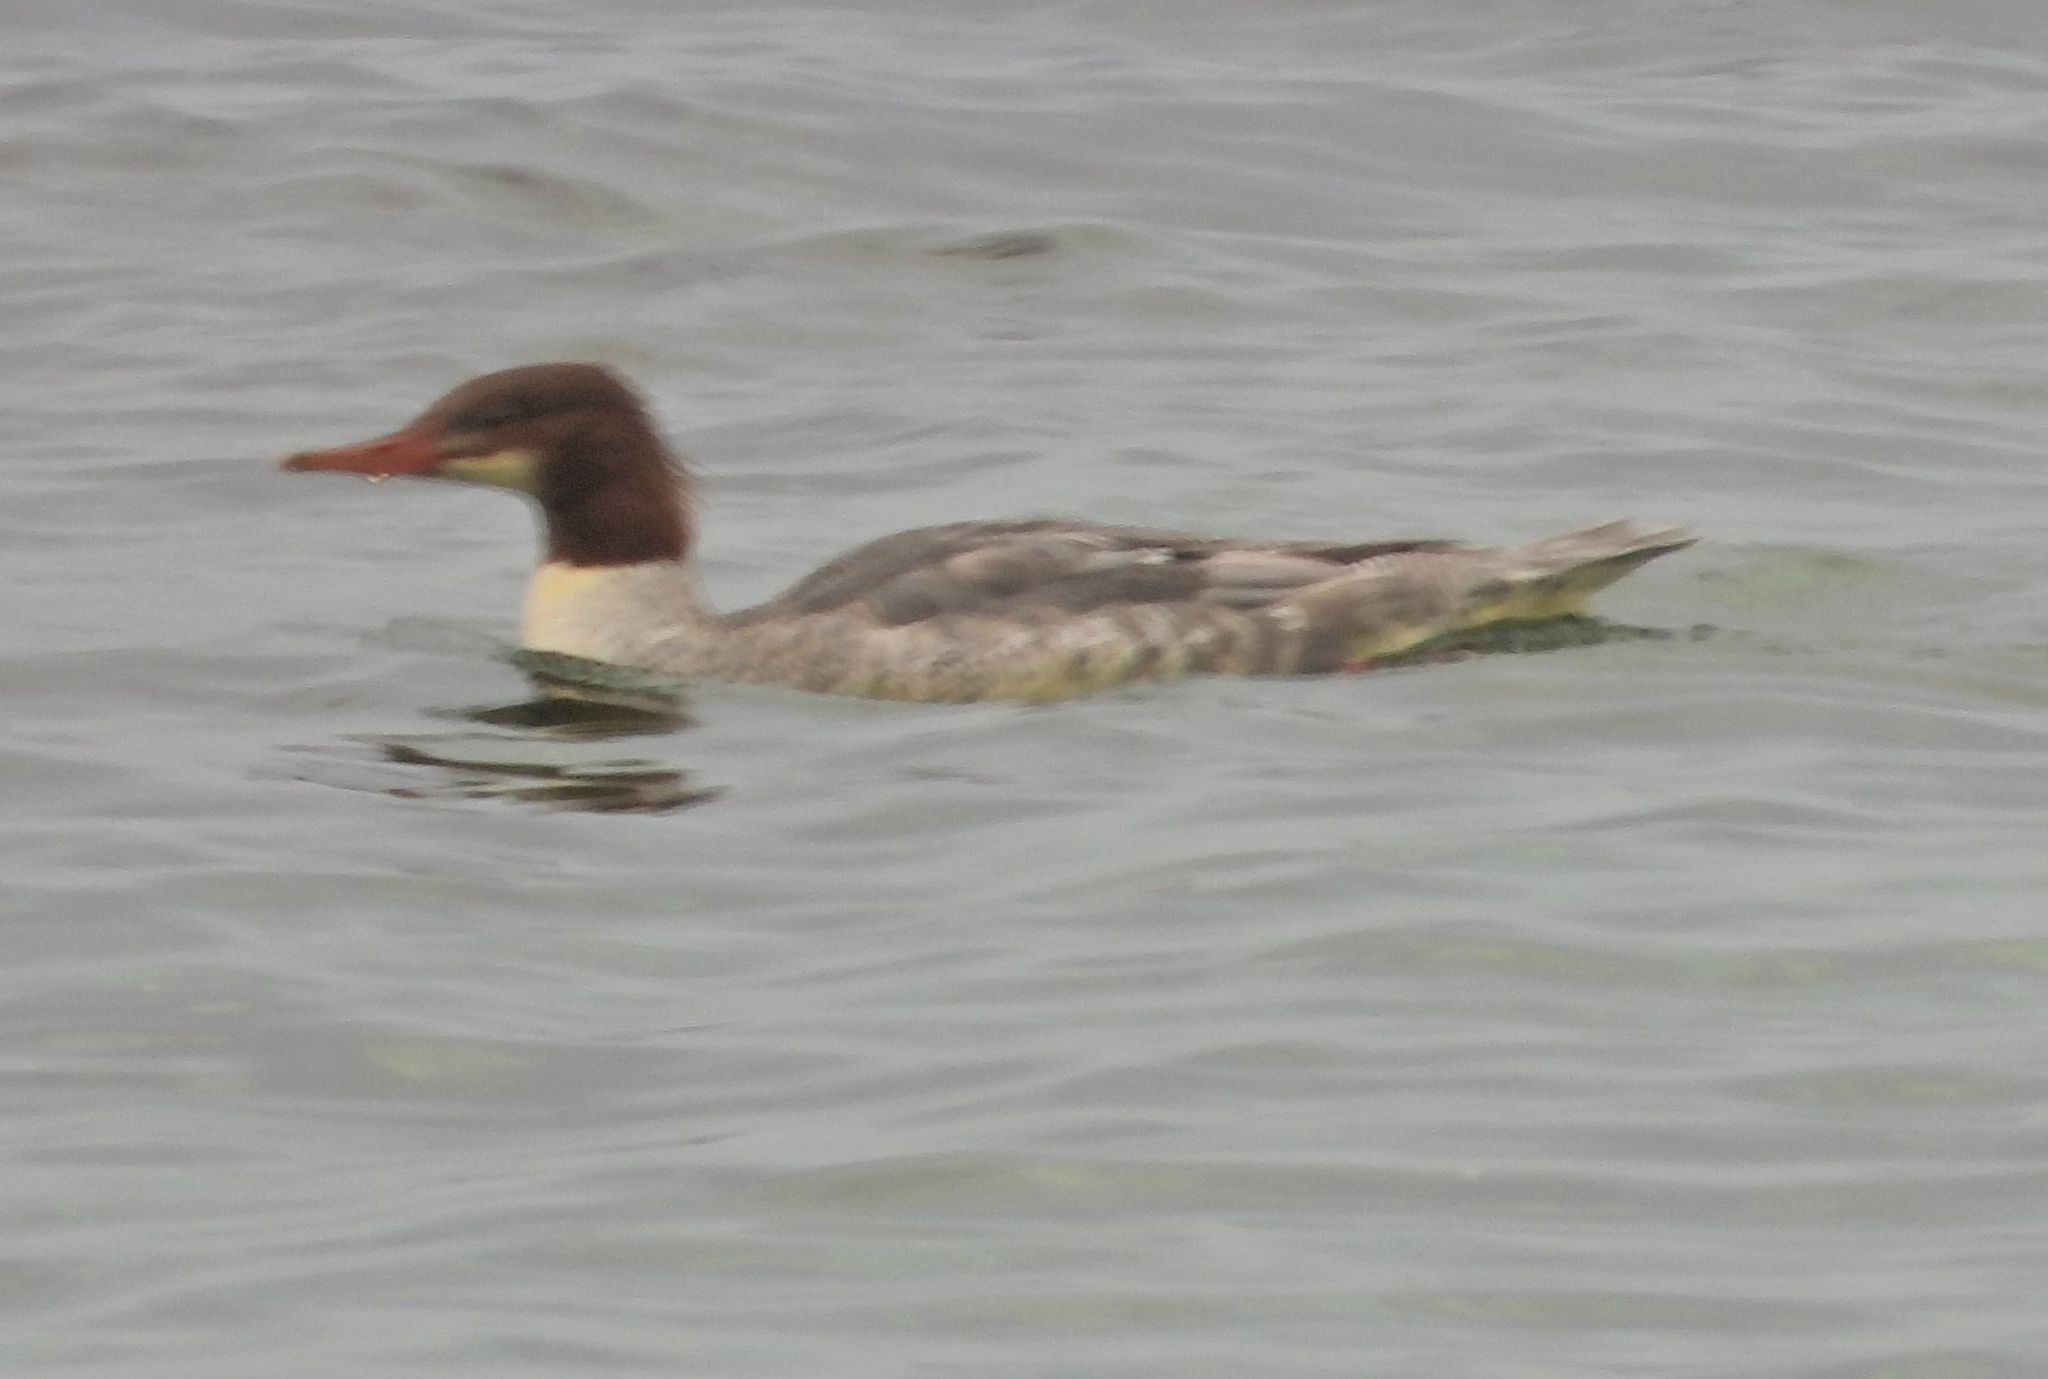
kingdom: Animalia
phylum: Chordata
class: Aves
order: Anseriformes
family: Anatidae
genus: Mergus
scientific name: Mergus merganser
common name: Common merganser
